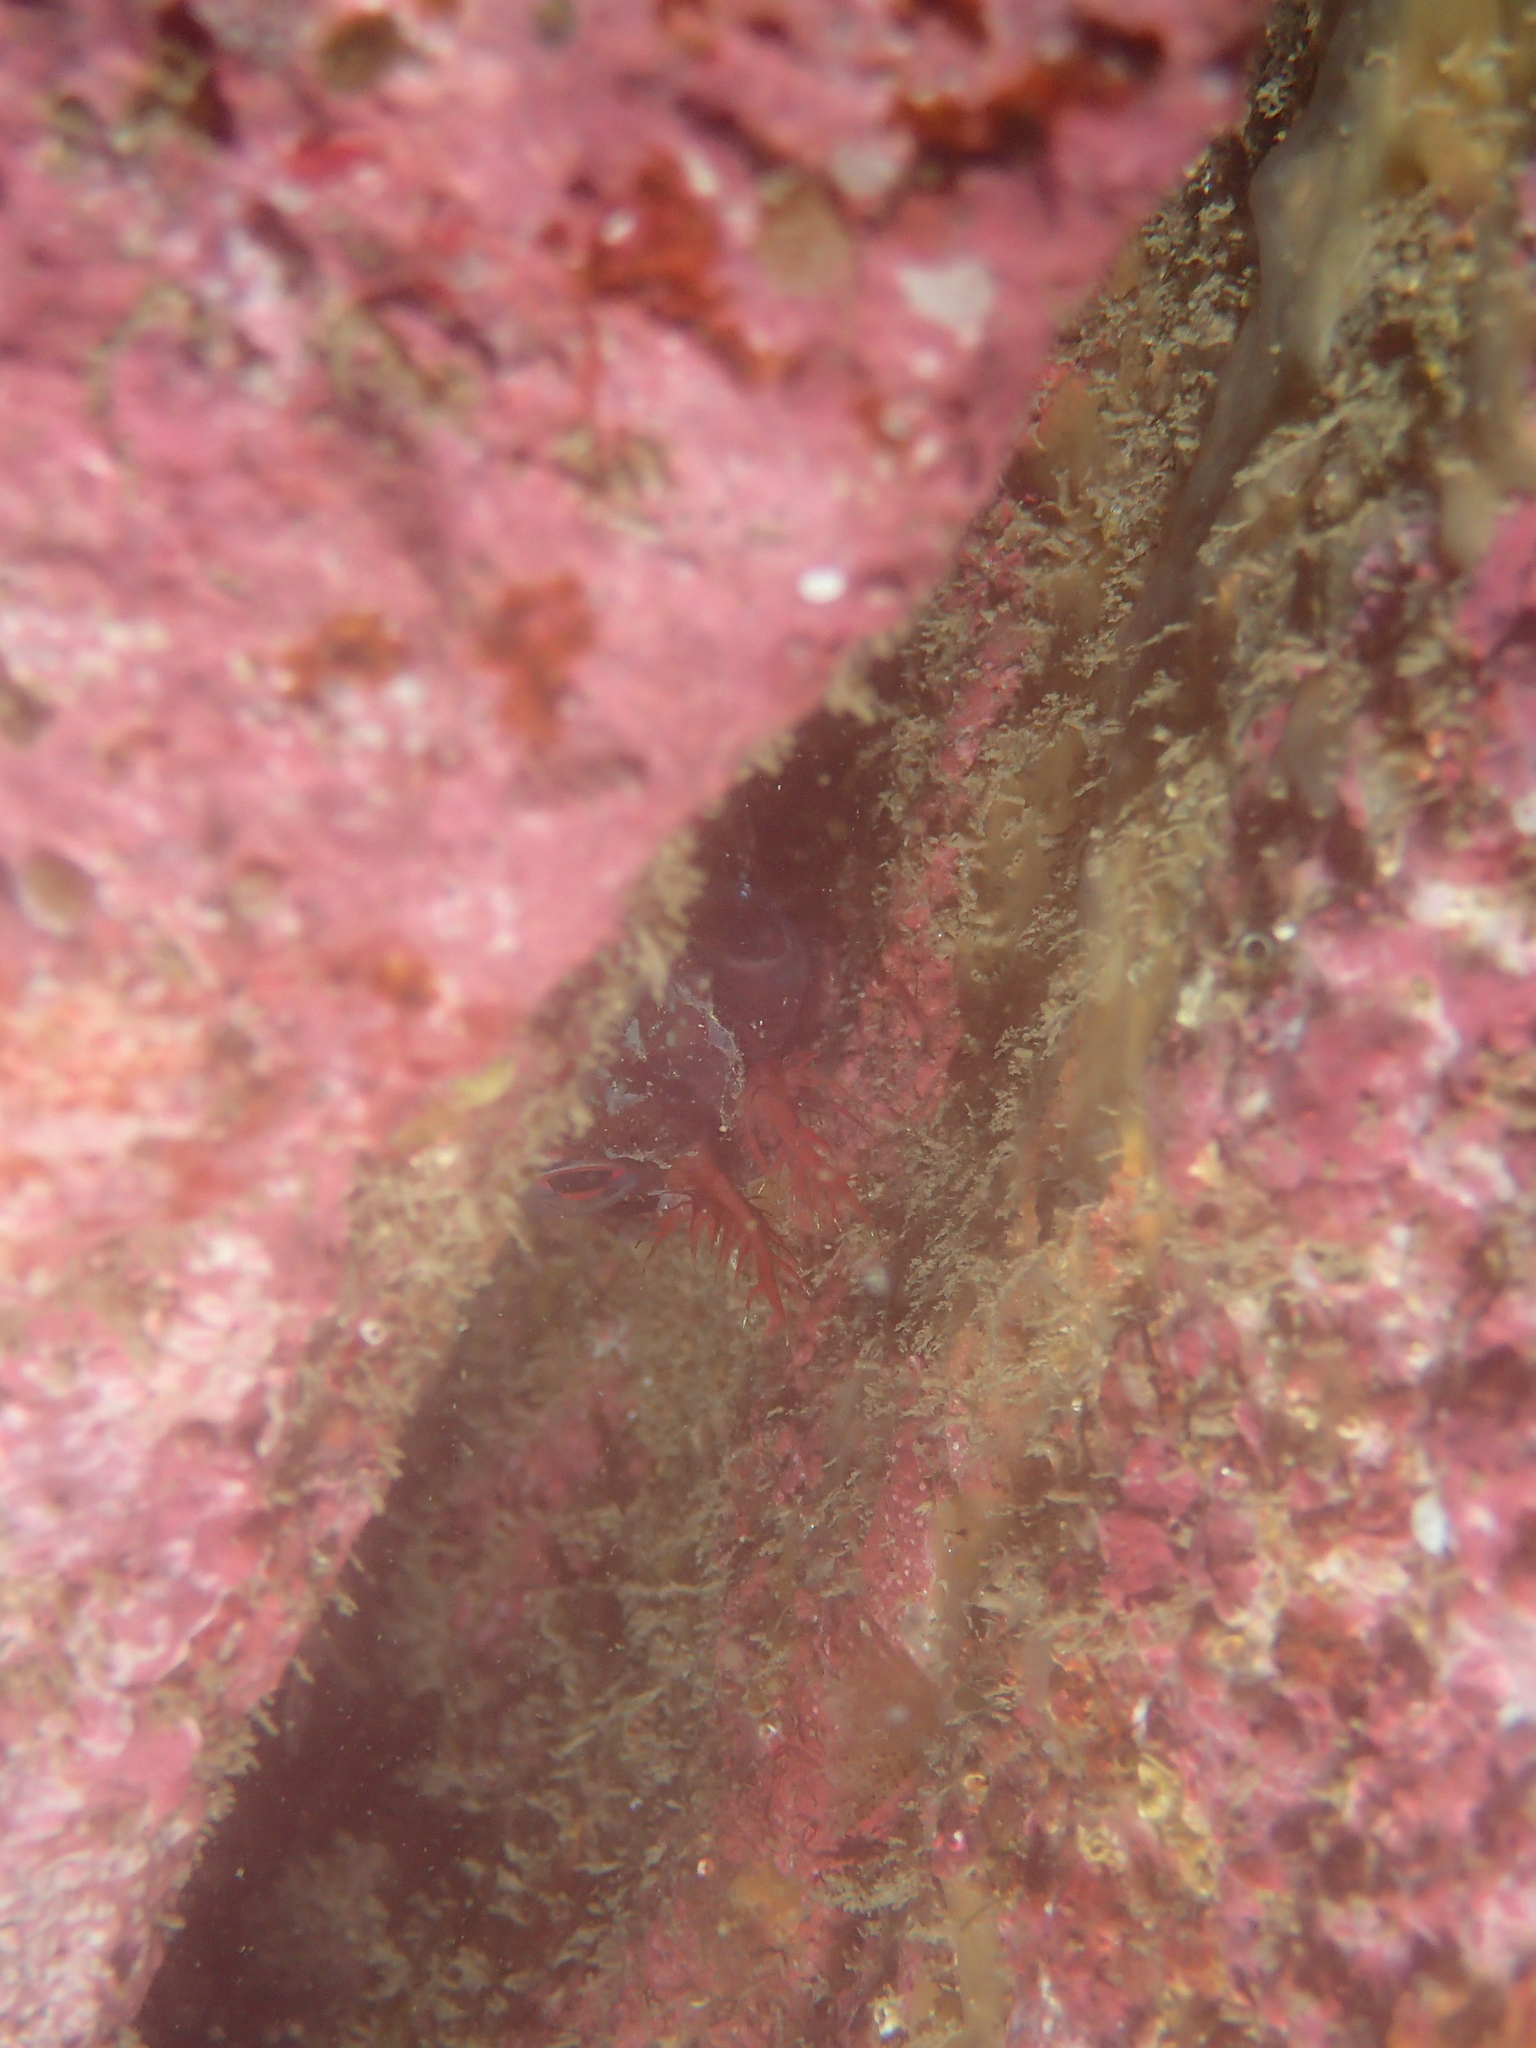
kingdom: Animalia
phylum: Chordata
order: Perciformes
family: Blenniidae
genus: Parablennius
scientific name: Parablennius gattorugine
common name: Tompot blenny
